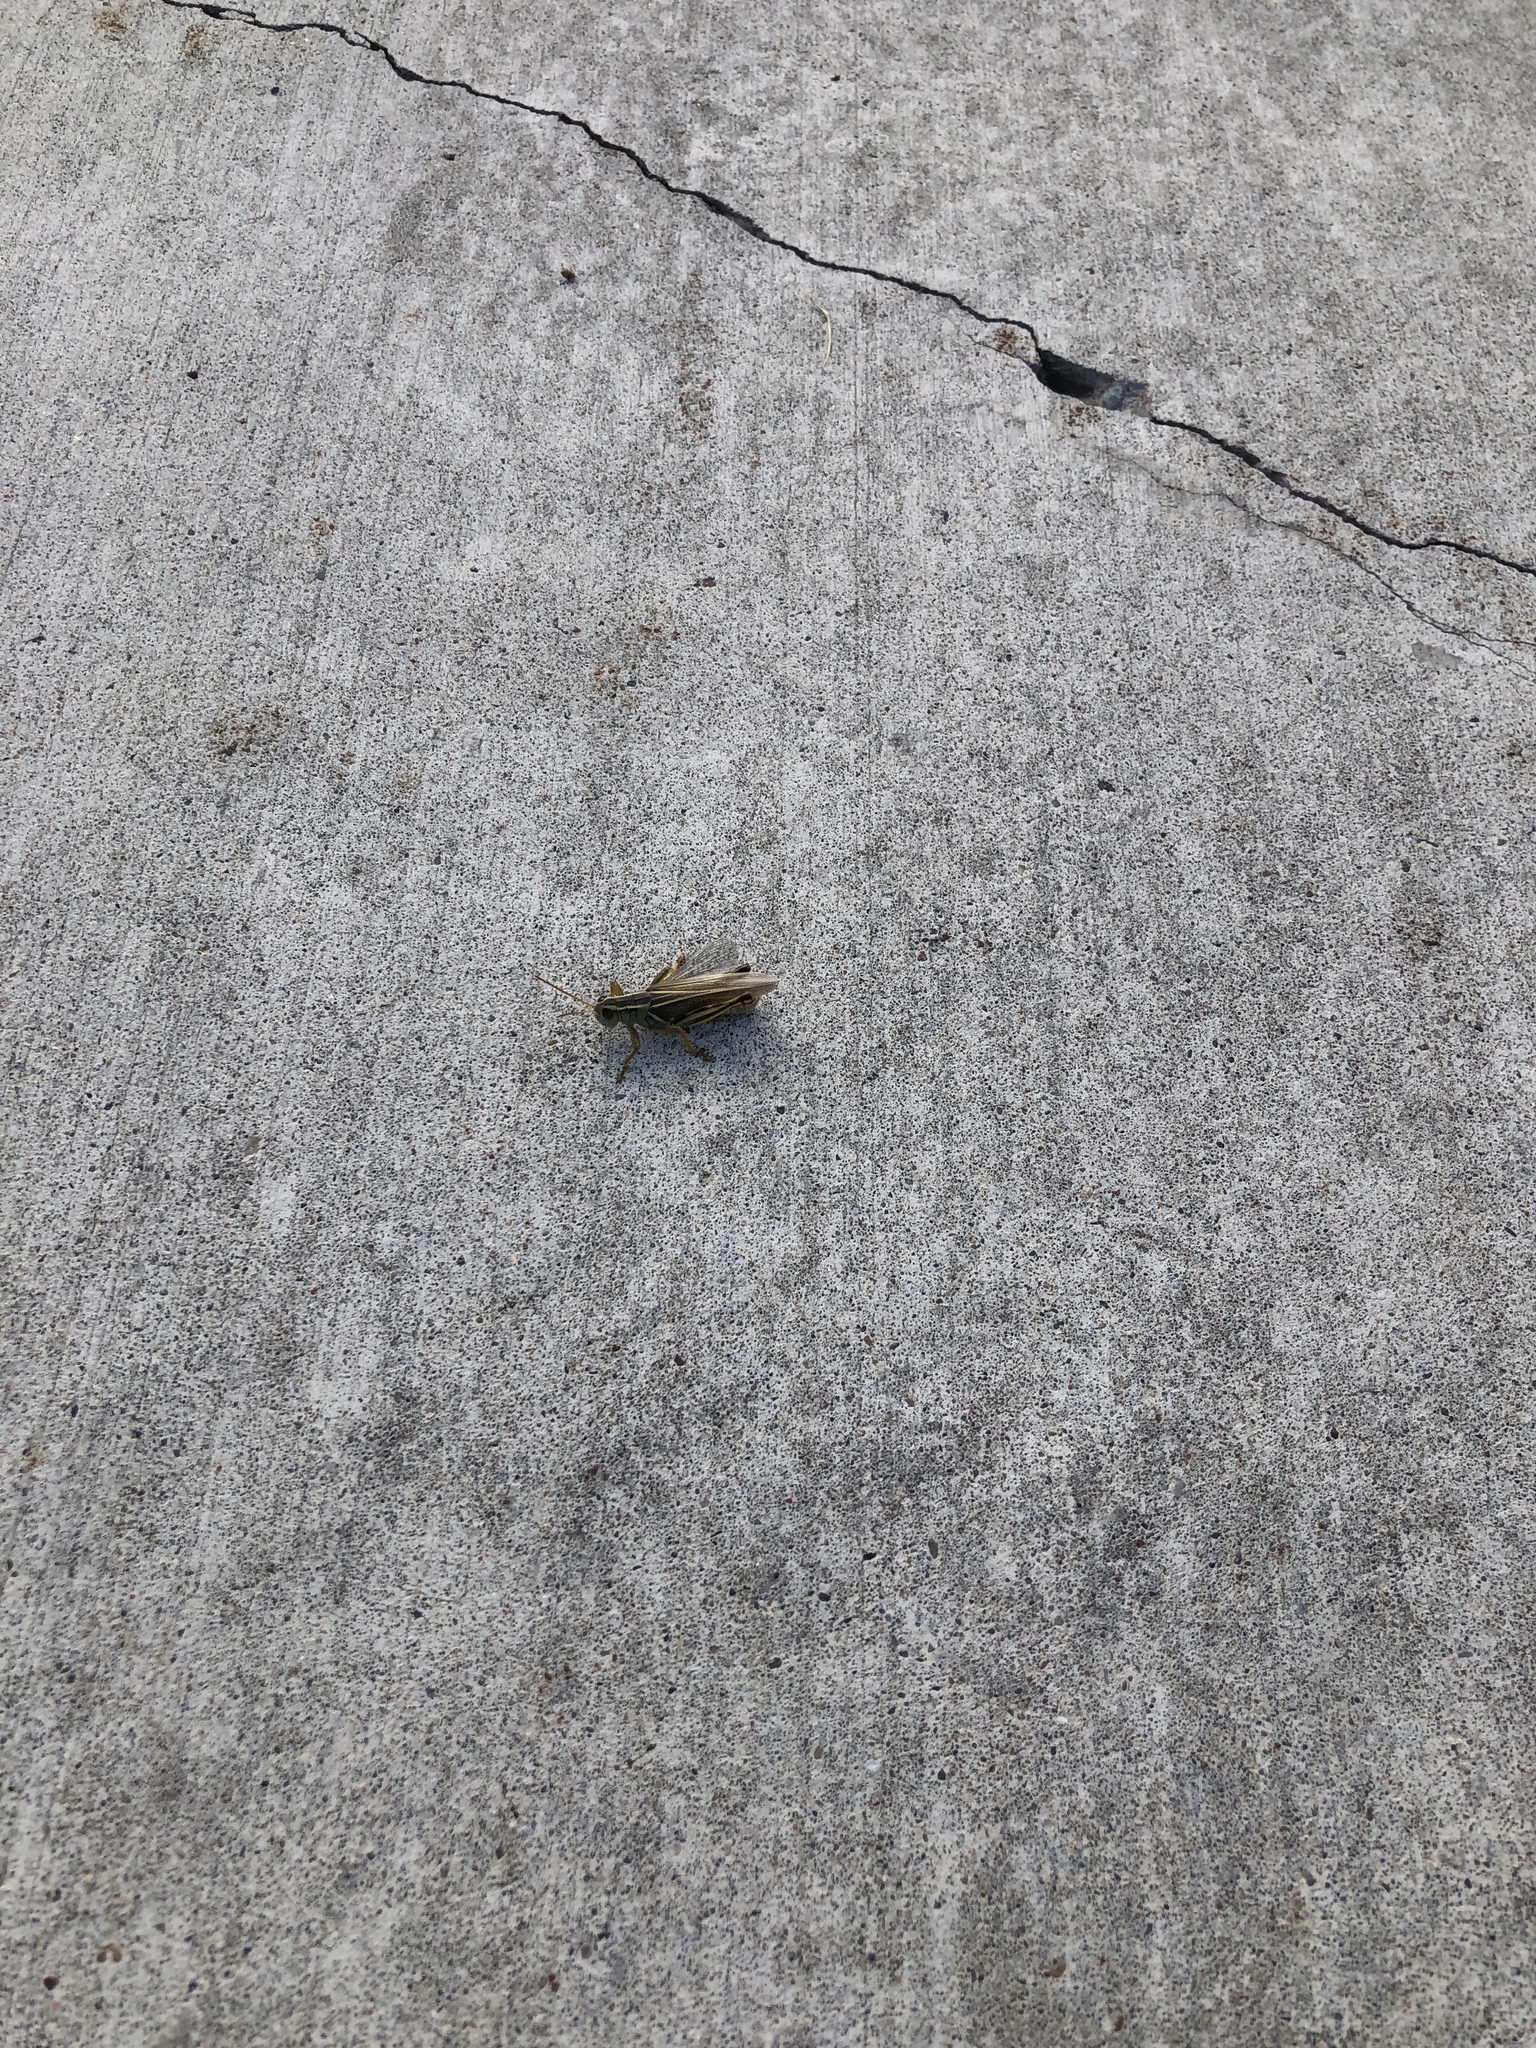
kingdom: Animalia
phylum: Arthropoda
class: Insecta
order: Orthoptera
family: Acrididae
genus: Melanoplus
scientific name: Melanoplus bivittatus
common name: Two-striped grasshopper
